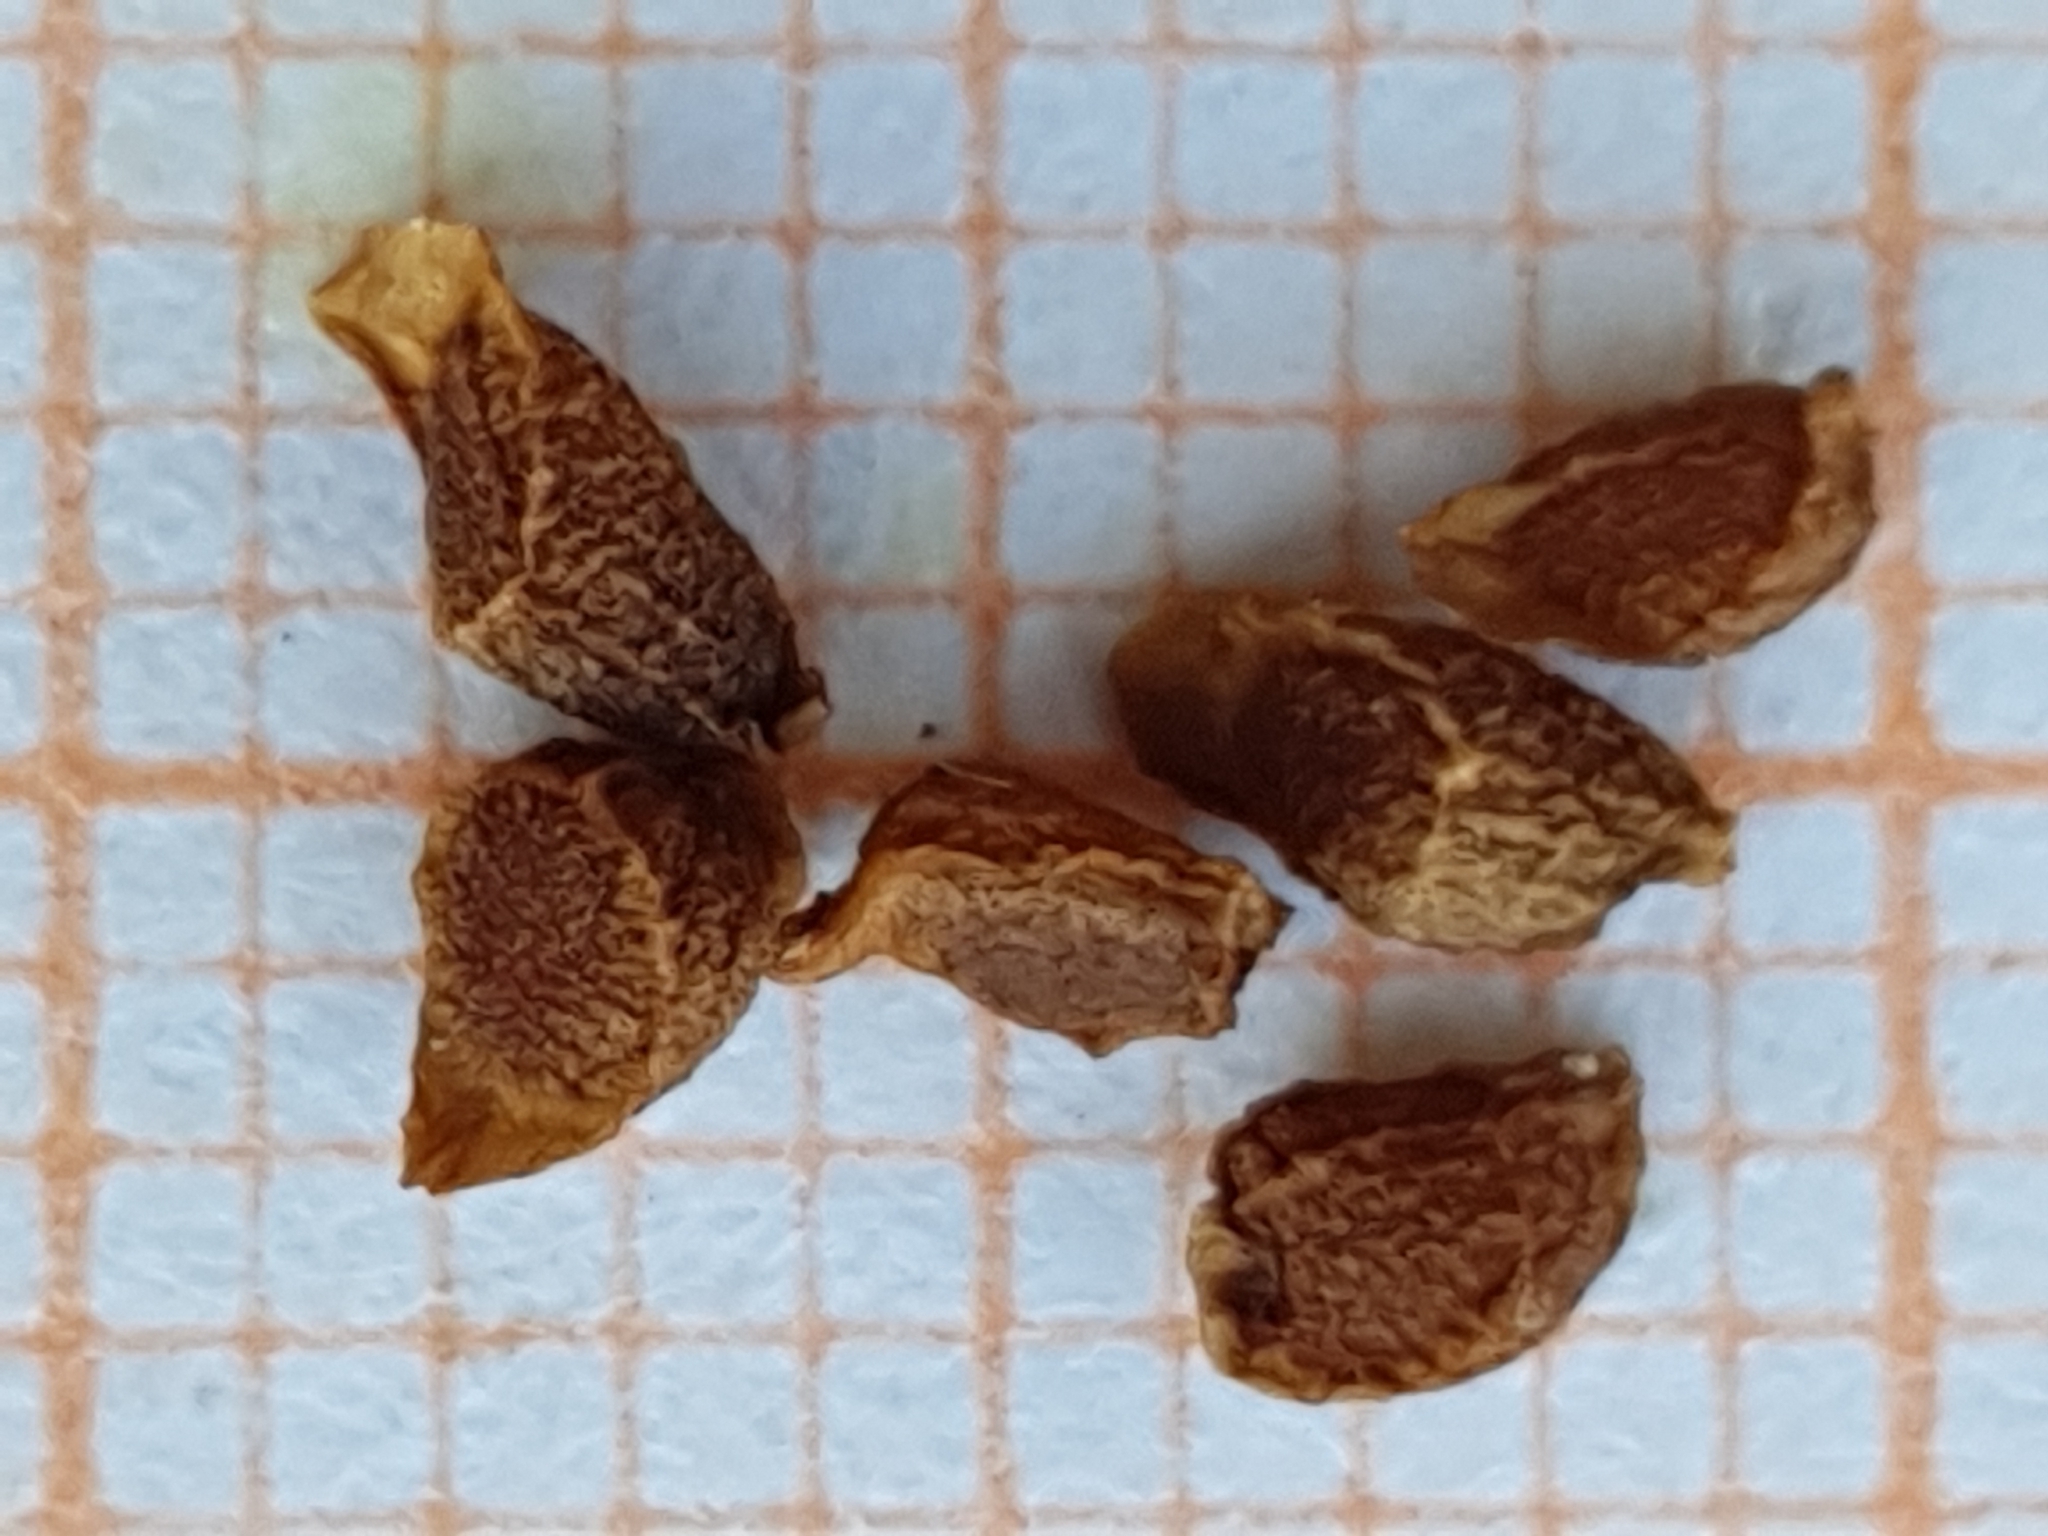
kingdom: Plantae
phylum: Tracheophyta
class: Liliopsida
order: Asparagales
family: Iridaceae
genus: Iris
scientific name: Iris juncea
